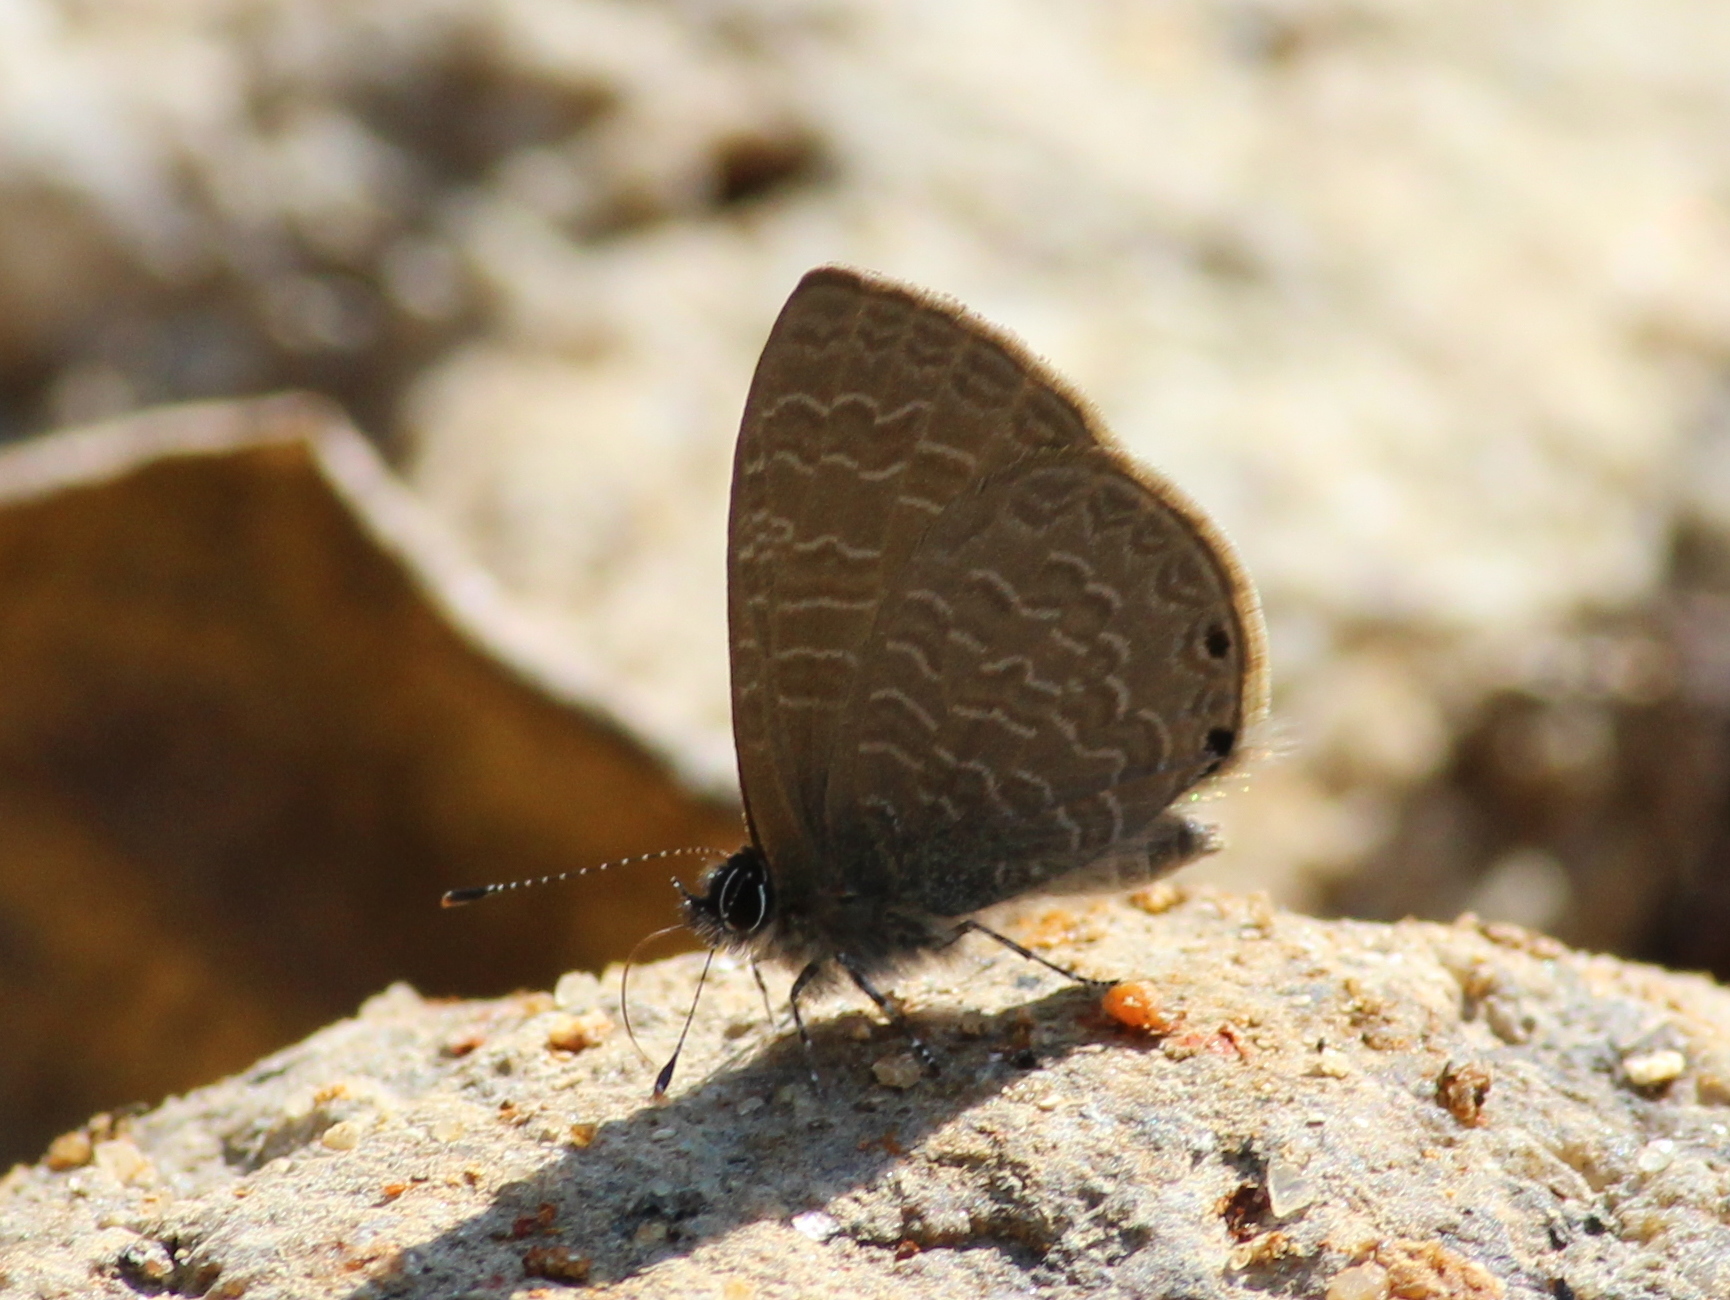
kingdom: Animalia
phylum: Arthropoda
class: Insecta
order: Lepidoptera
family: Lycaenidae
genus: Petrelaea
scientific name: Petrelaea dana
